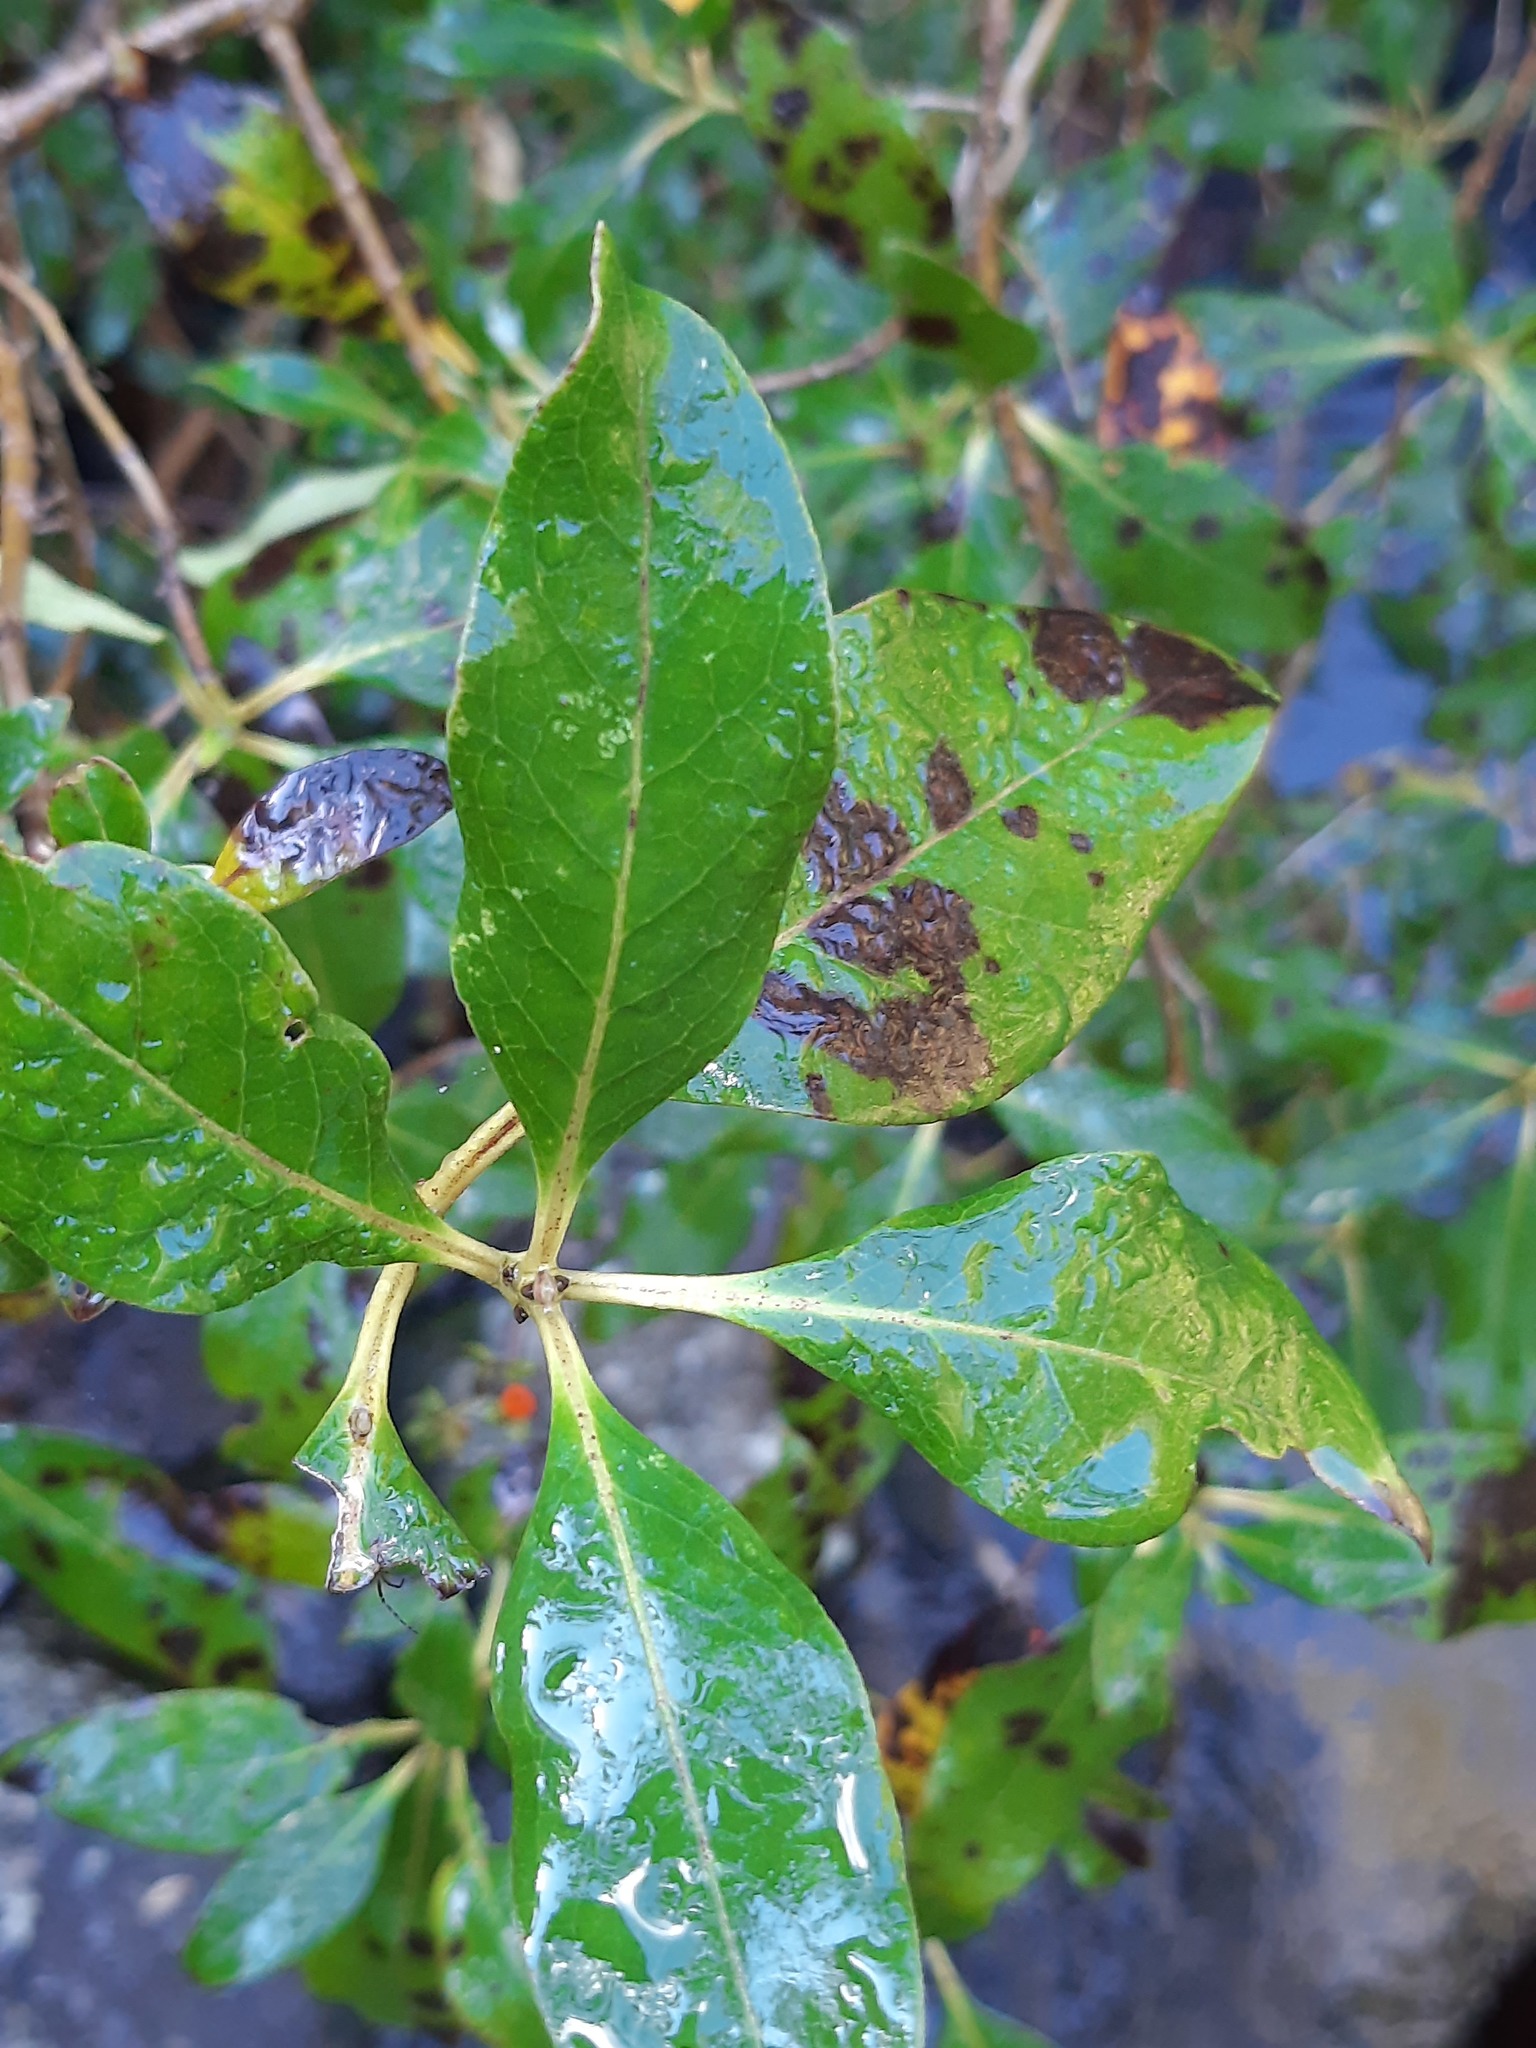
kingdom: Plantae
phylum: Tracheophyta
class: Magnoliopsida
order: Gentianales
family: Rubiaceae
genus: Coprosma
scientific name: Coprosma robusta
